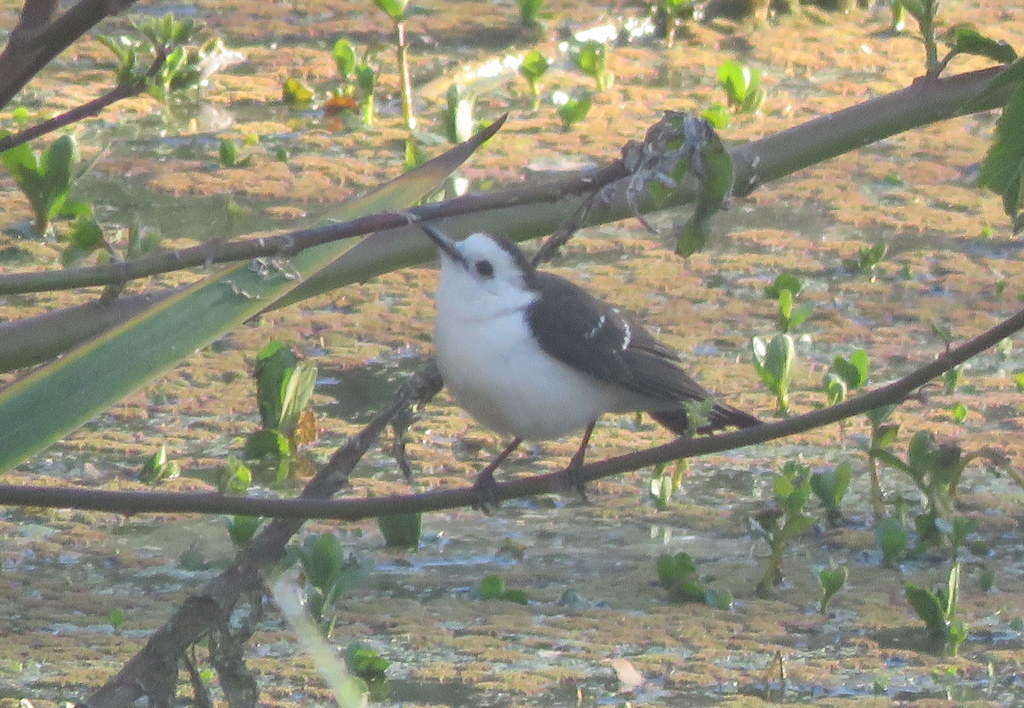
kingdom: Animalia
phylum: Chordata
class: Aves
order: Passeriformes
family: Tyrannidae
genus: Fluvicola
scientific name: Fluvicola pica
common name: Pied water-tyrant
